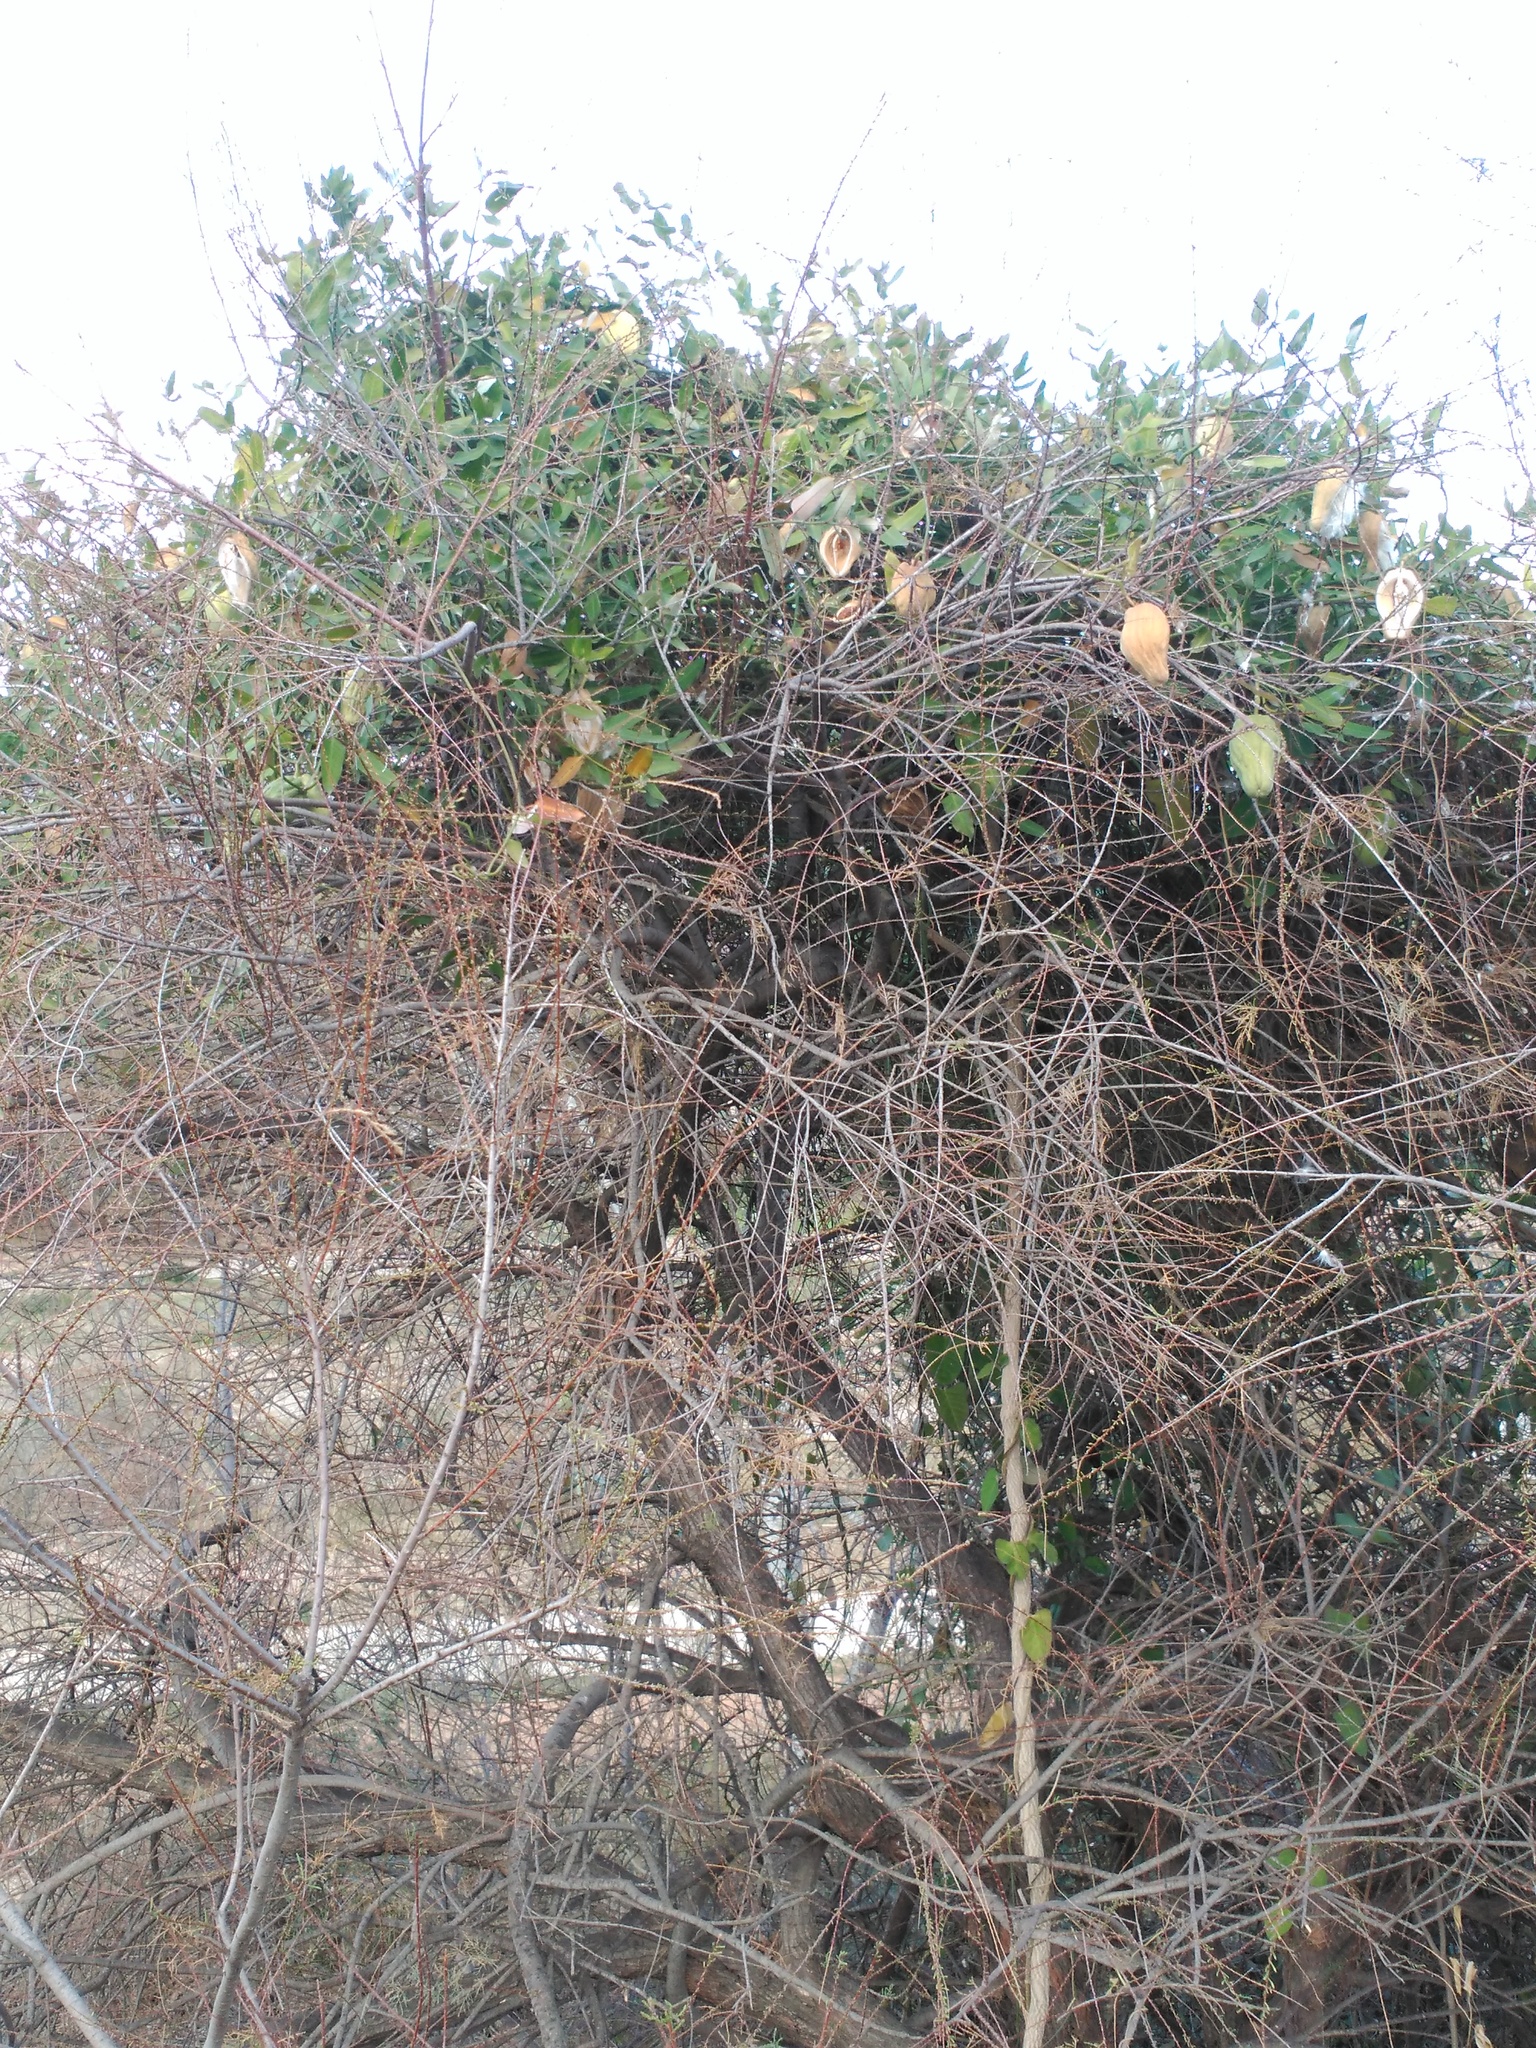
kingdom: Plantae
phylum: Tracheophyta
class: Magnoliopsida
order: Gentianales
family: Apocynaceae
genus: Araujia
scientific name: Araujia sericifera
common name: White bladderflower
